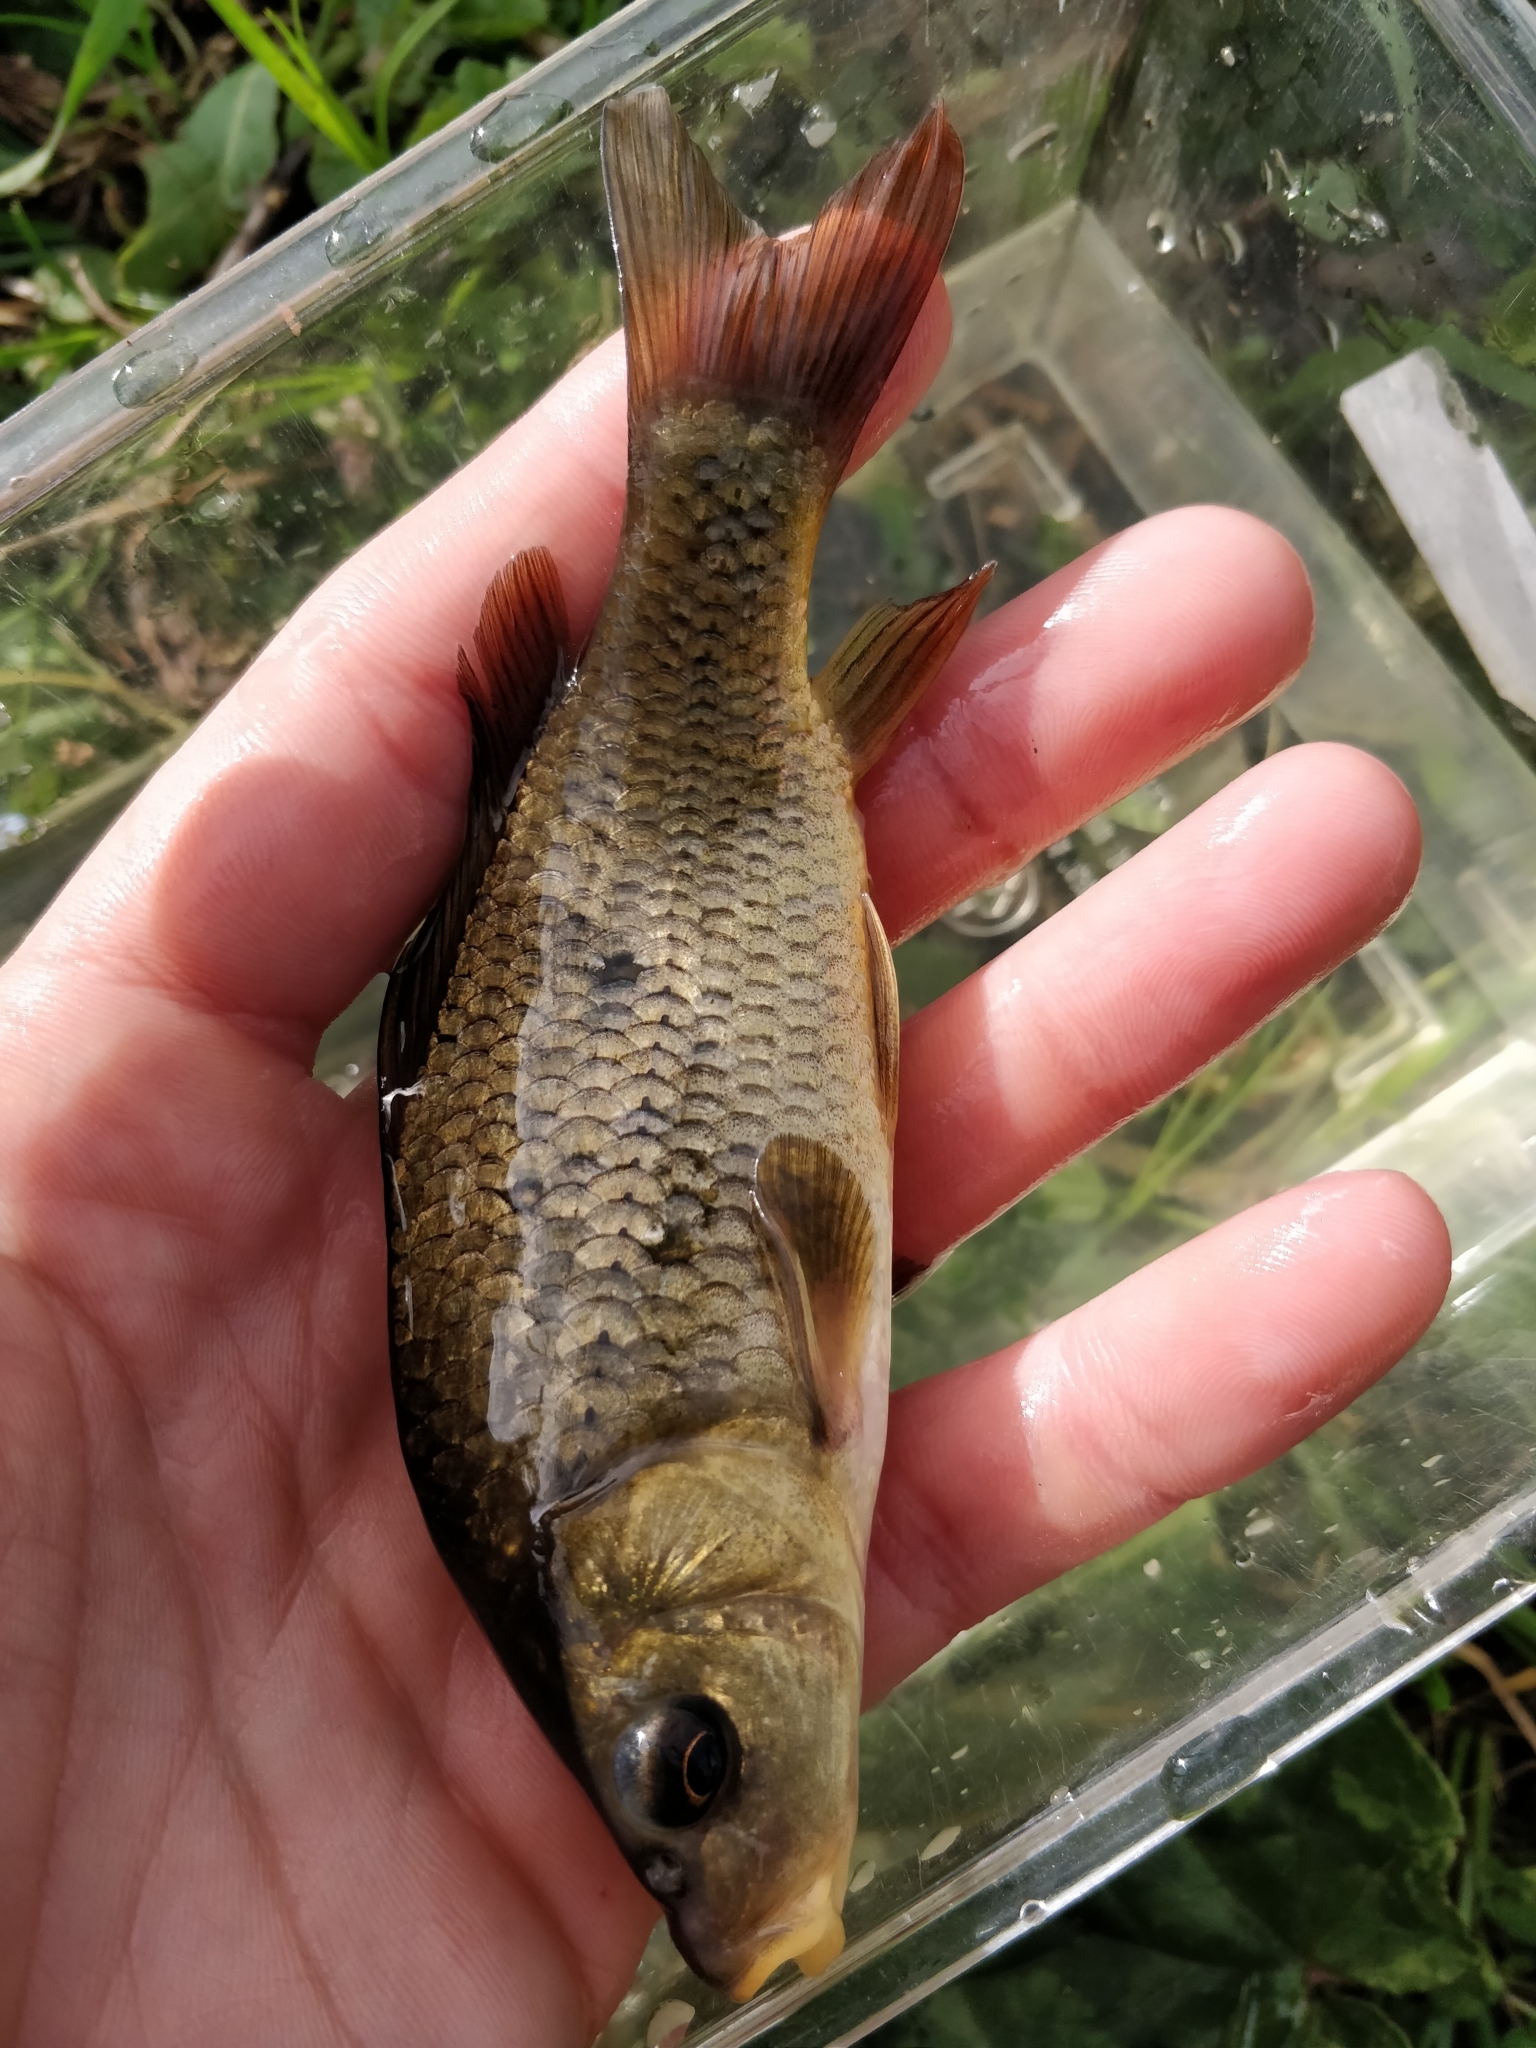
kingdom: Animalia
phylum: Chordata
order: Cypriniformes
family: Cyprinidae
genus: Cyprinus
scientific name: Cyprinus carpio
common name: Common carp
